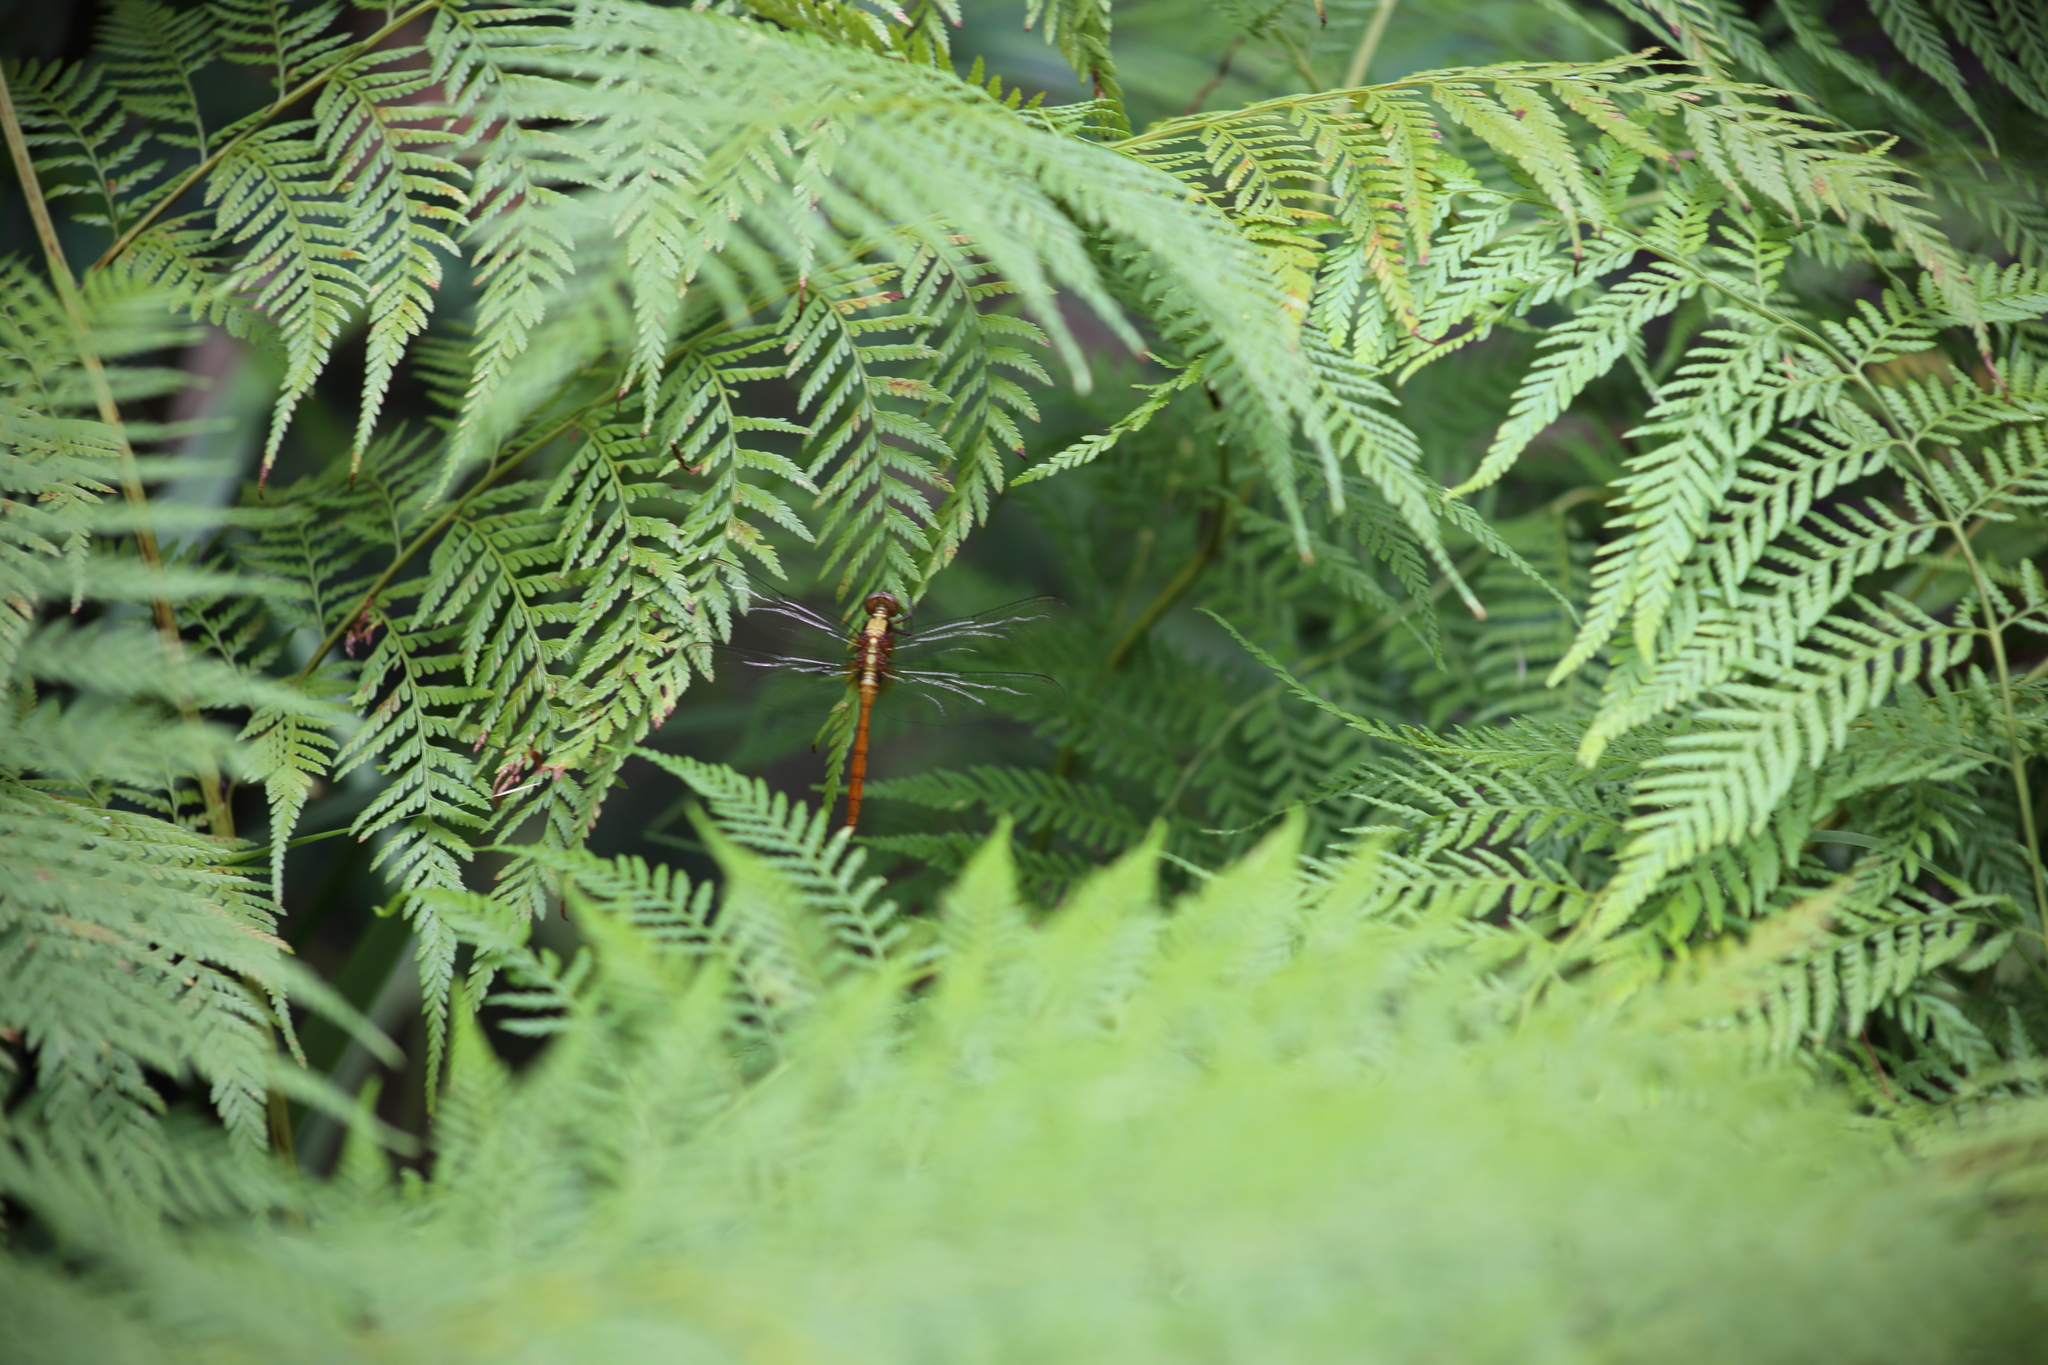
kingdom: Animalia
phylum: Arthropoda
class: Insecta
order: Odonata
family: Libellulidae
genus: Orthetrum
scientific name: Orthetrum villosovittatum
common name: Firery skimmer
